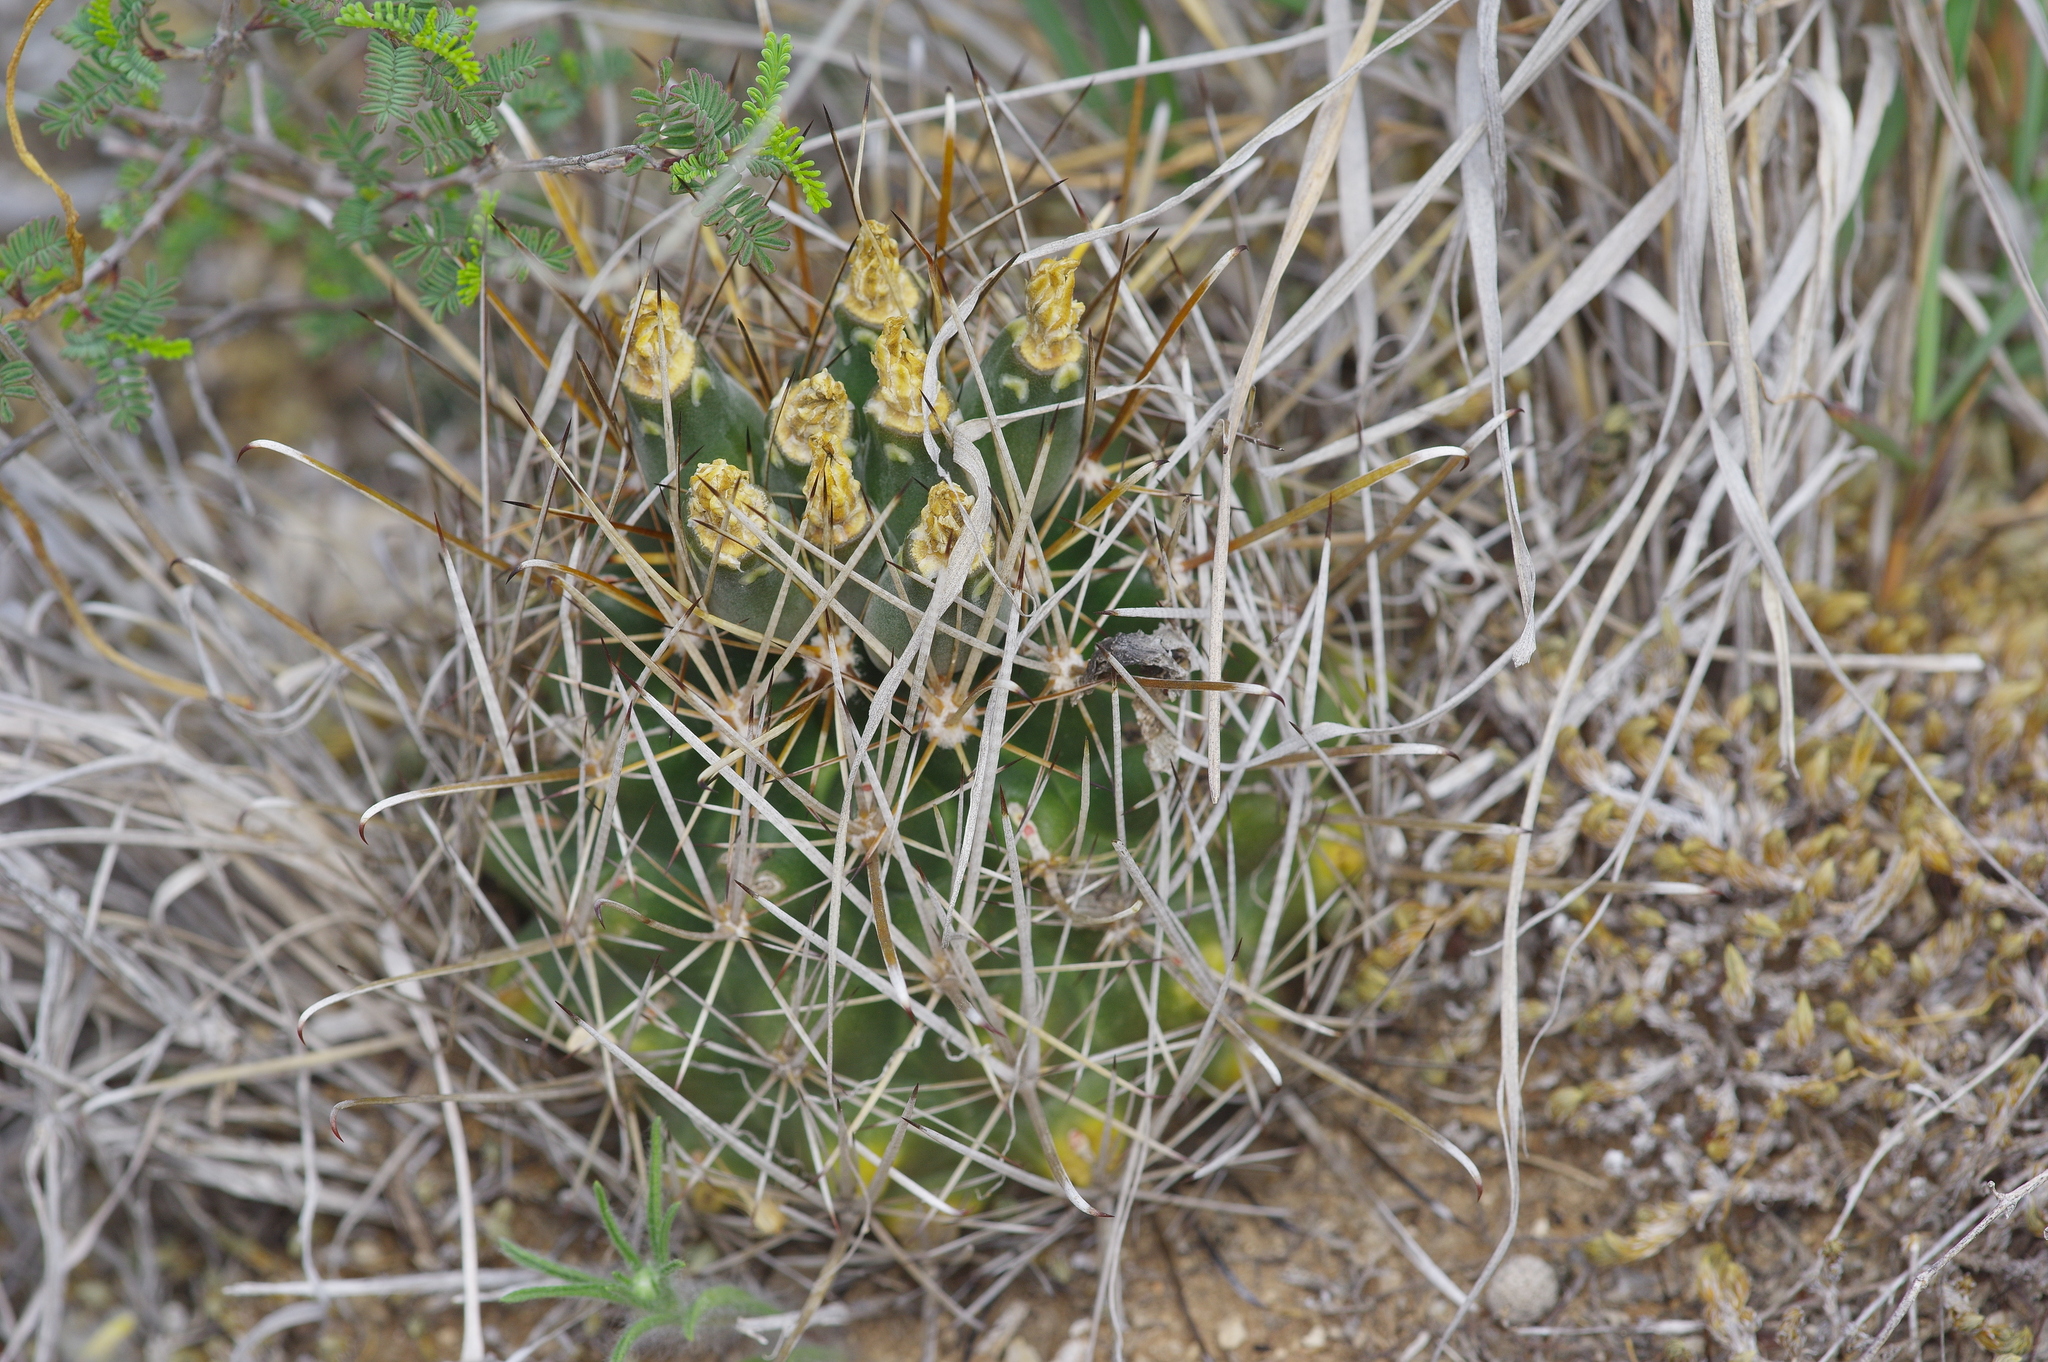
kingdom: Plantae
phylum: Tracheophyta
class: Magnoliopsida
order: Caryophyllales
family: Cactaceae
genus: Sclerocactus
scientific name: Sclerocactus brevihamatus
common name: Engelmann's fishhook cactus
